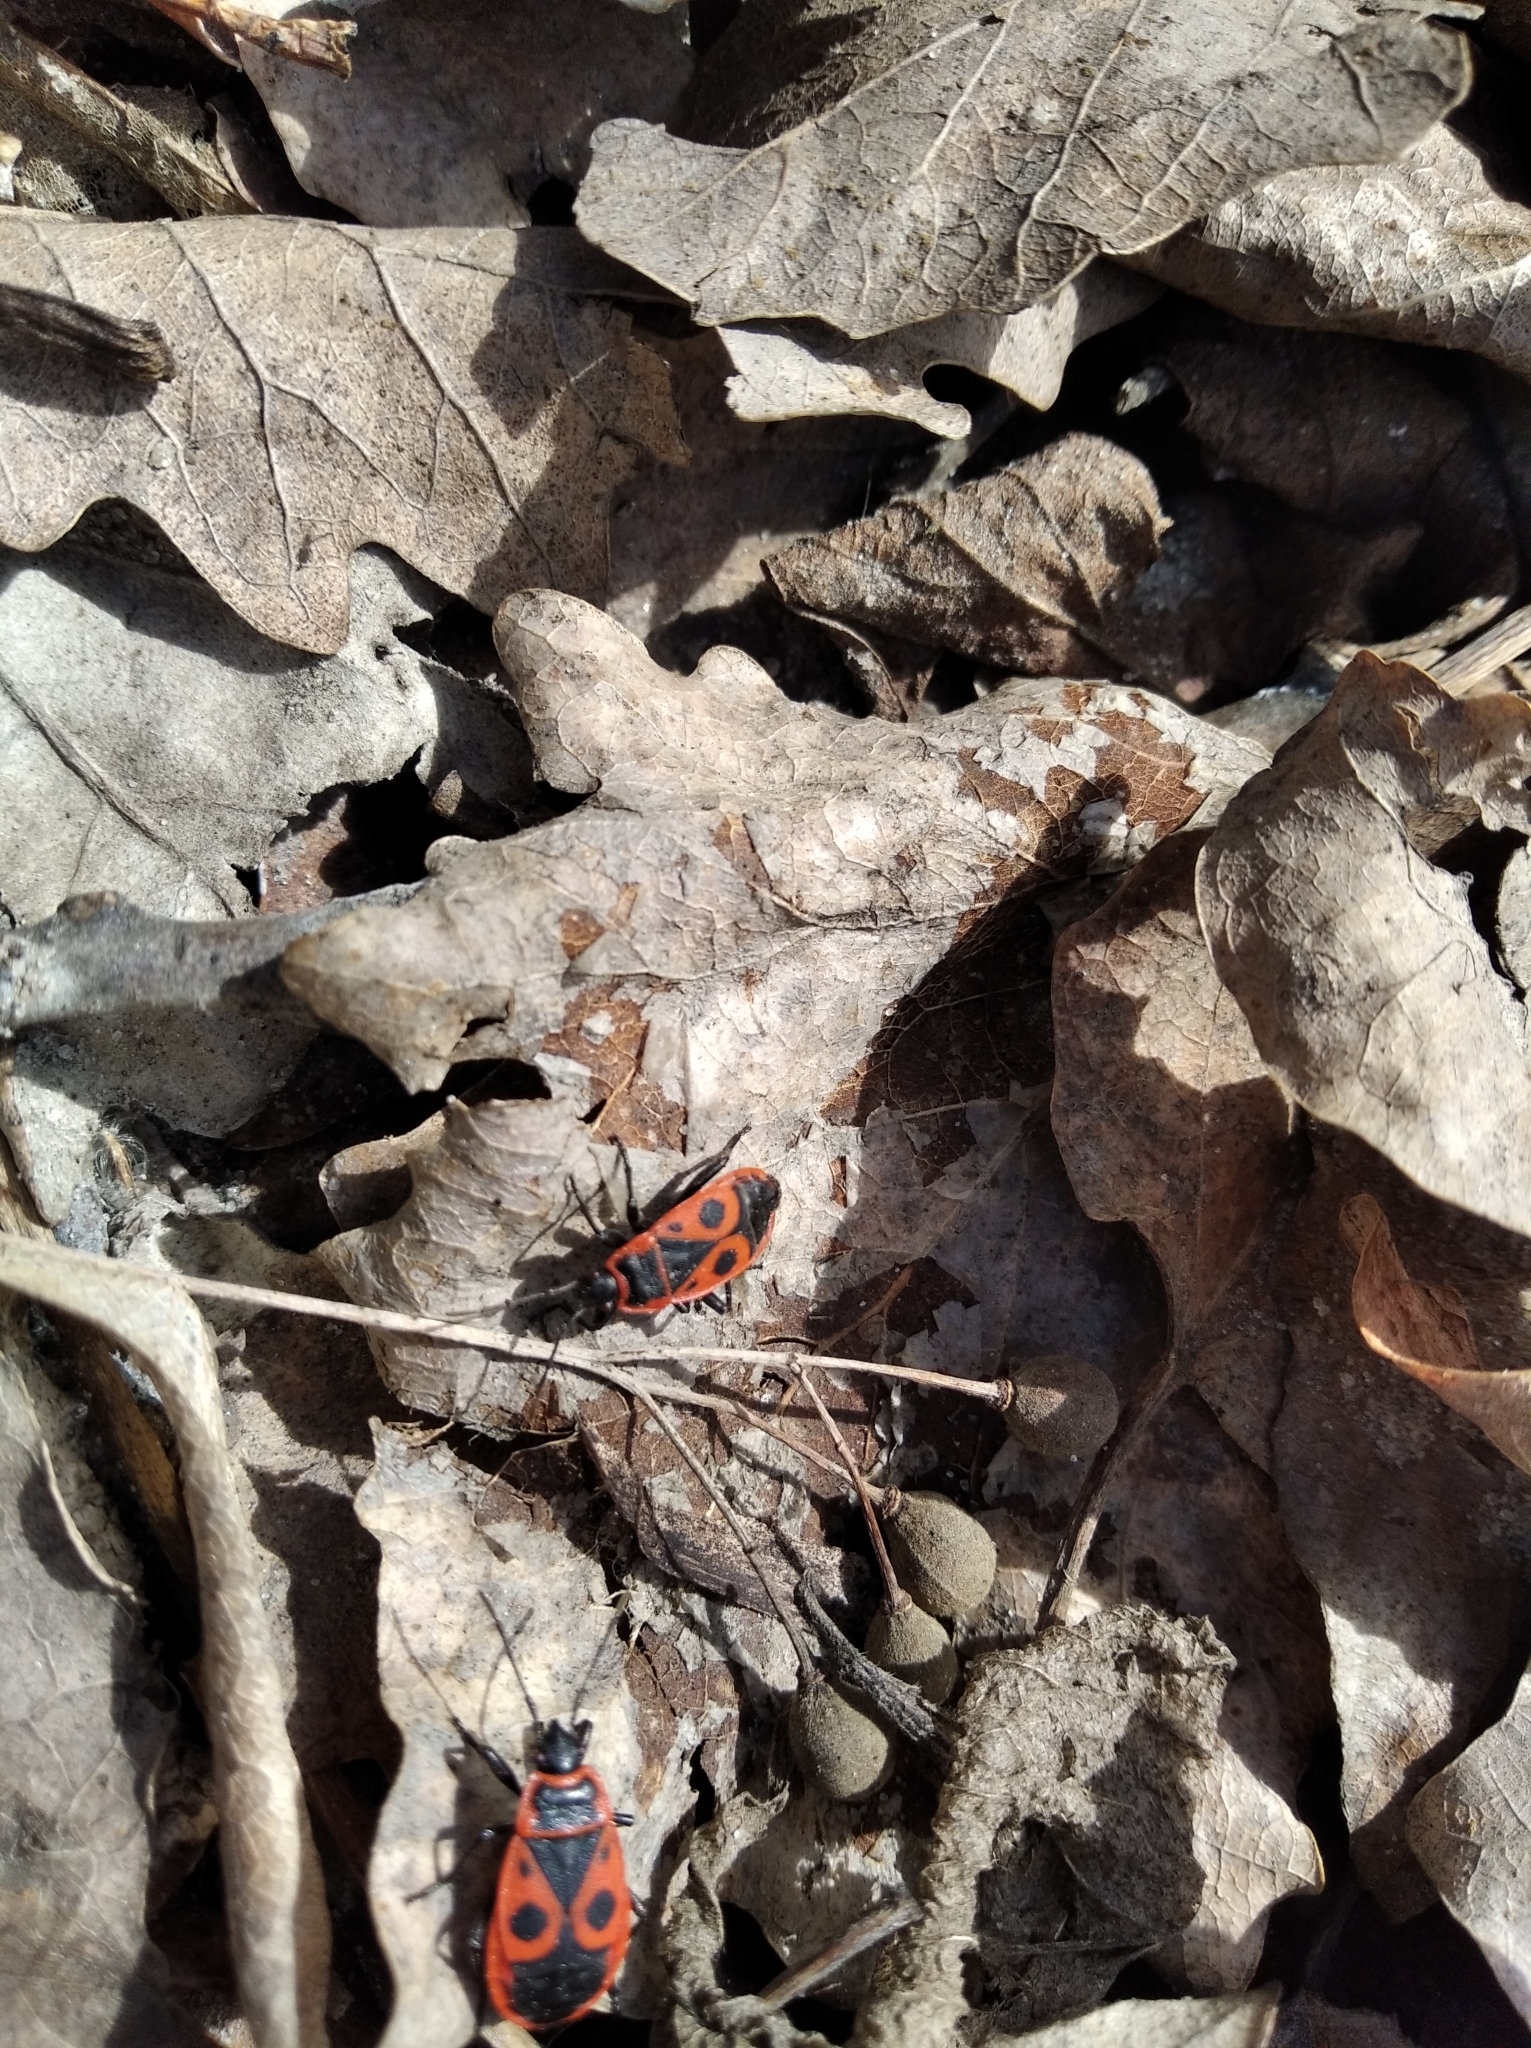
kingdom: Animalia
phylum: Arthropoda
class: Insecta
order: Hemiptera
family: Pyrrhocoridae
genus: Pyrrhocoris
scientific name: Pyrrhocoris apterus
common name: Firebug
